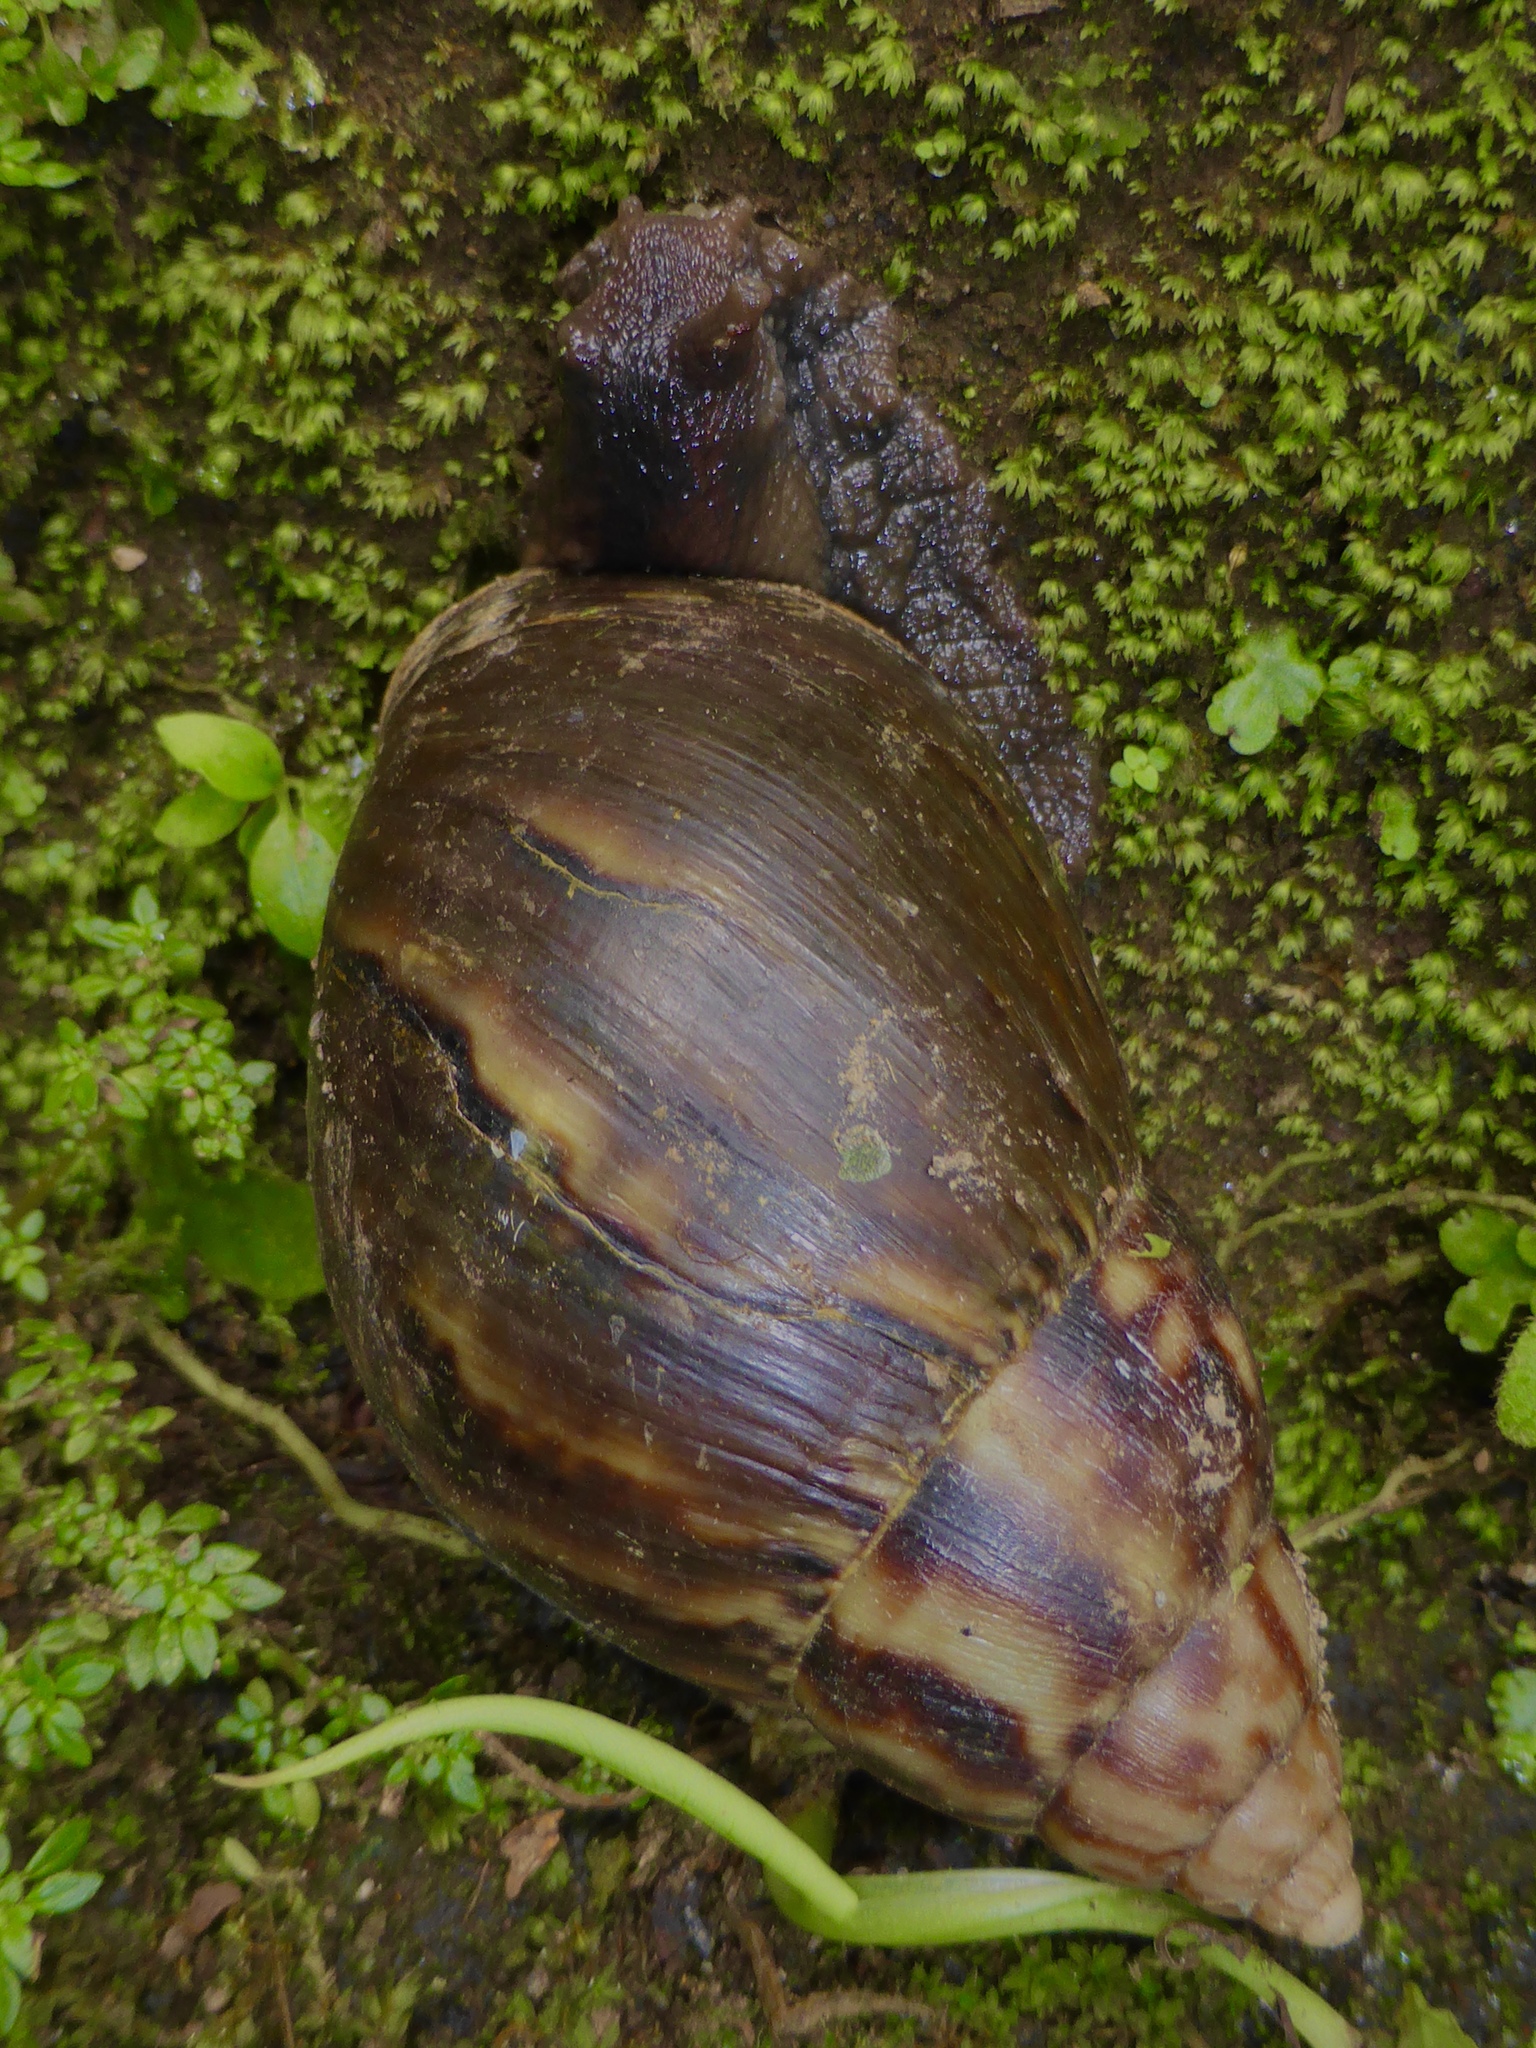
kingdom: Animalia
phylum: Mollusca
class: Gastropoda
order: Stylommatophora
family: Achatinidae
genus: Lissachatina
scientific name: Lissachatina fulica
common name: Giant african snail
